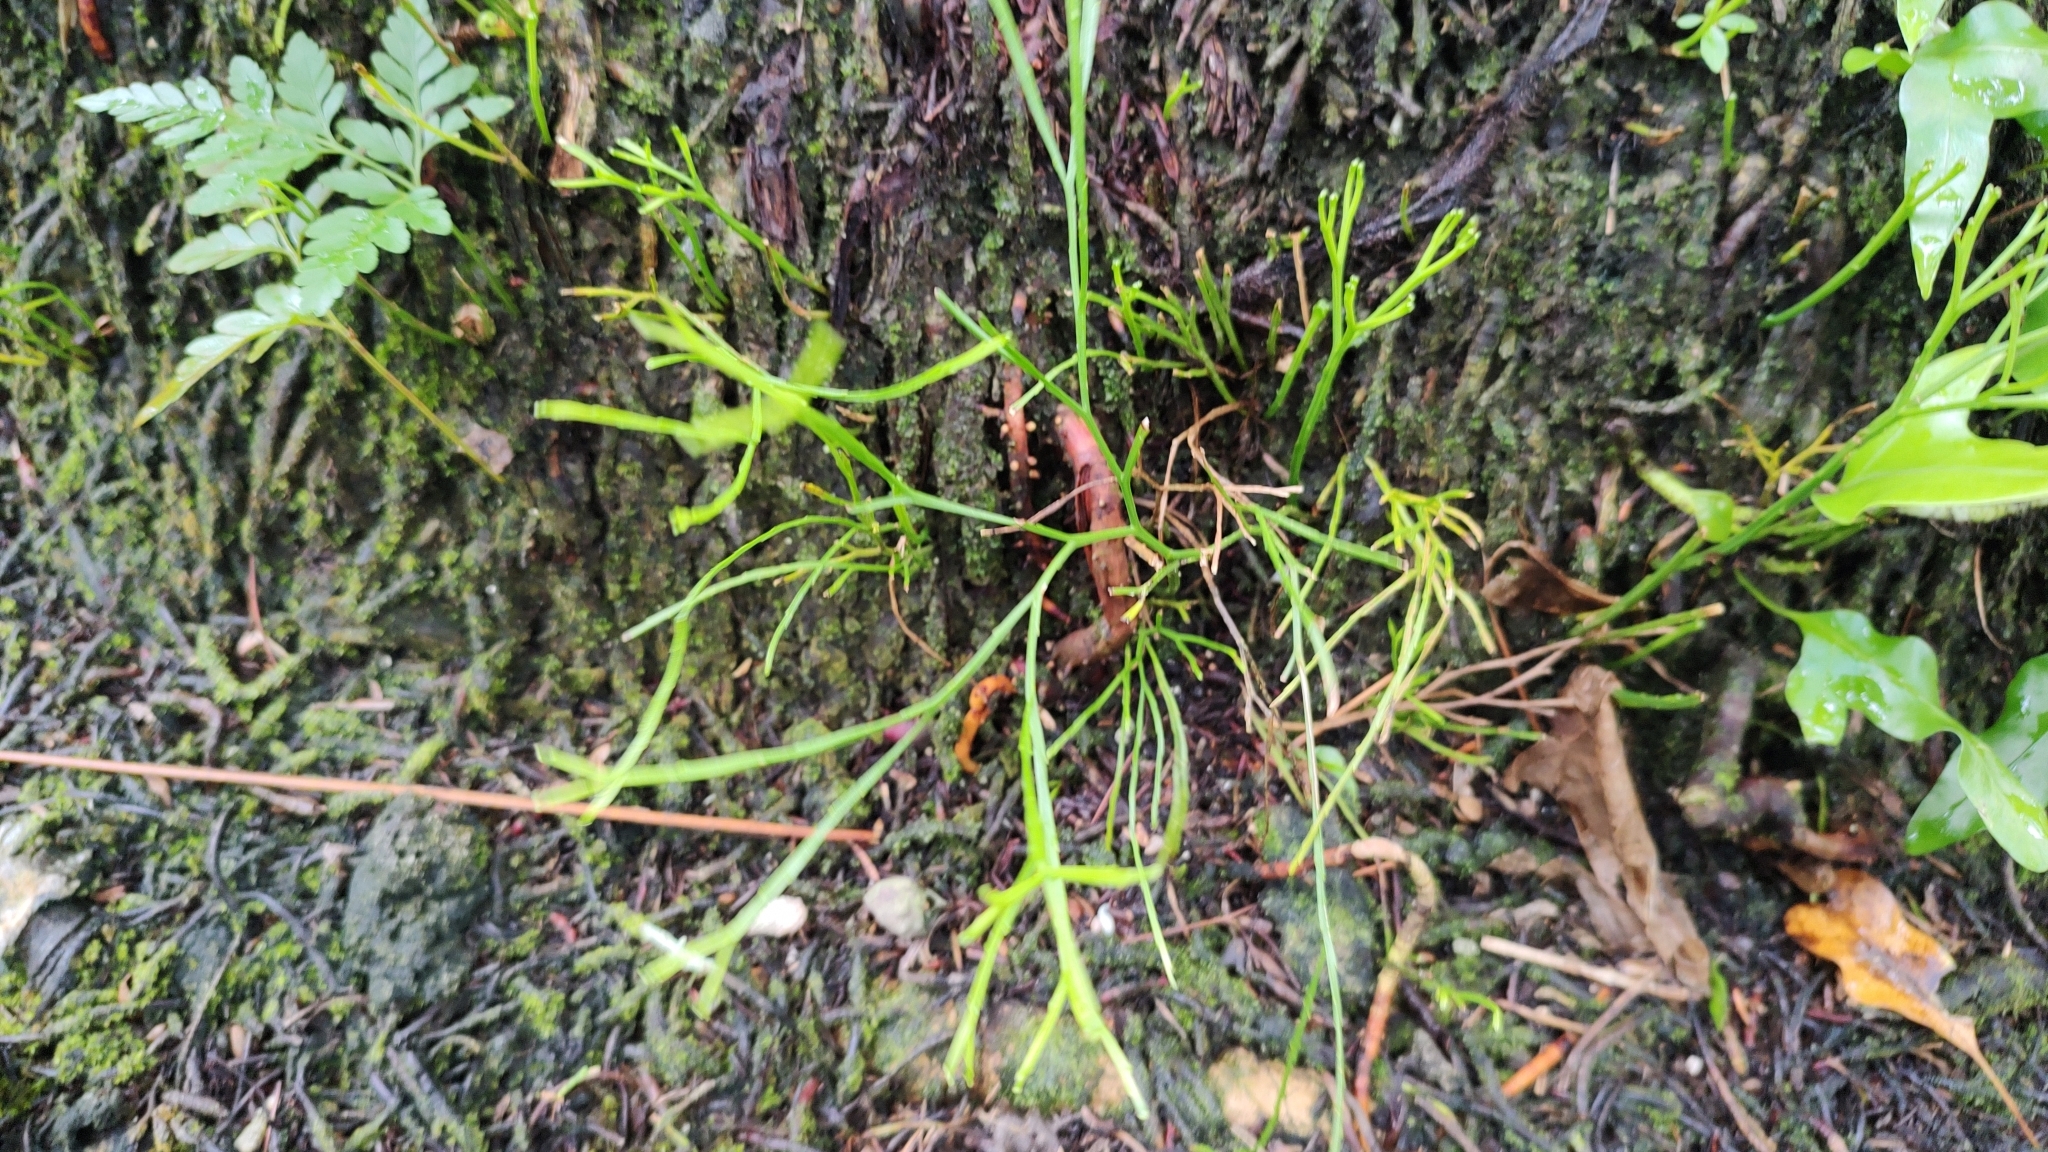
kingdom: Plantae
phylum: Tracheophyta
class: Polypodiopsida
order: Psilotales
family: Psilotaceae
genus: Psilotum
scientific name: Psilotum nudum
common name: Skeleton fork fern
